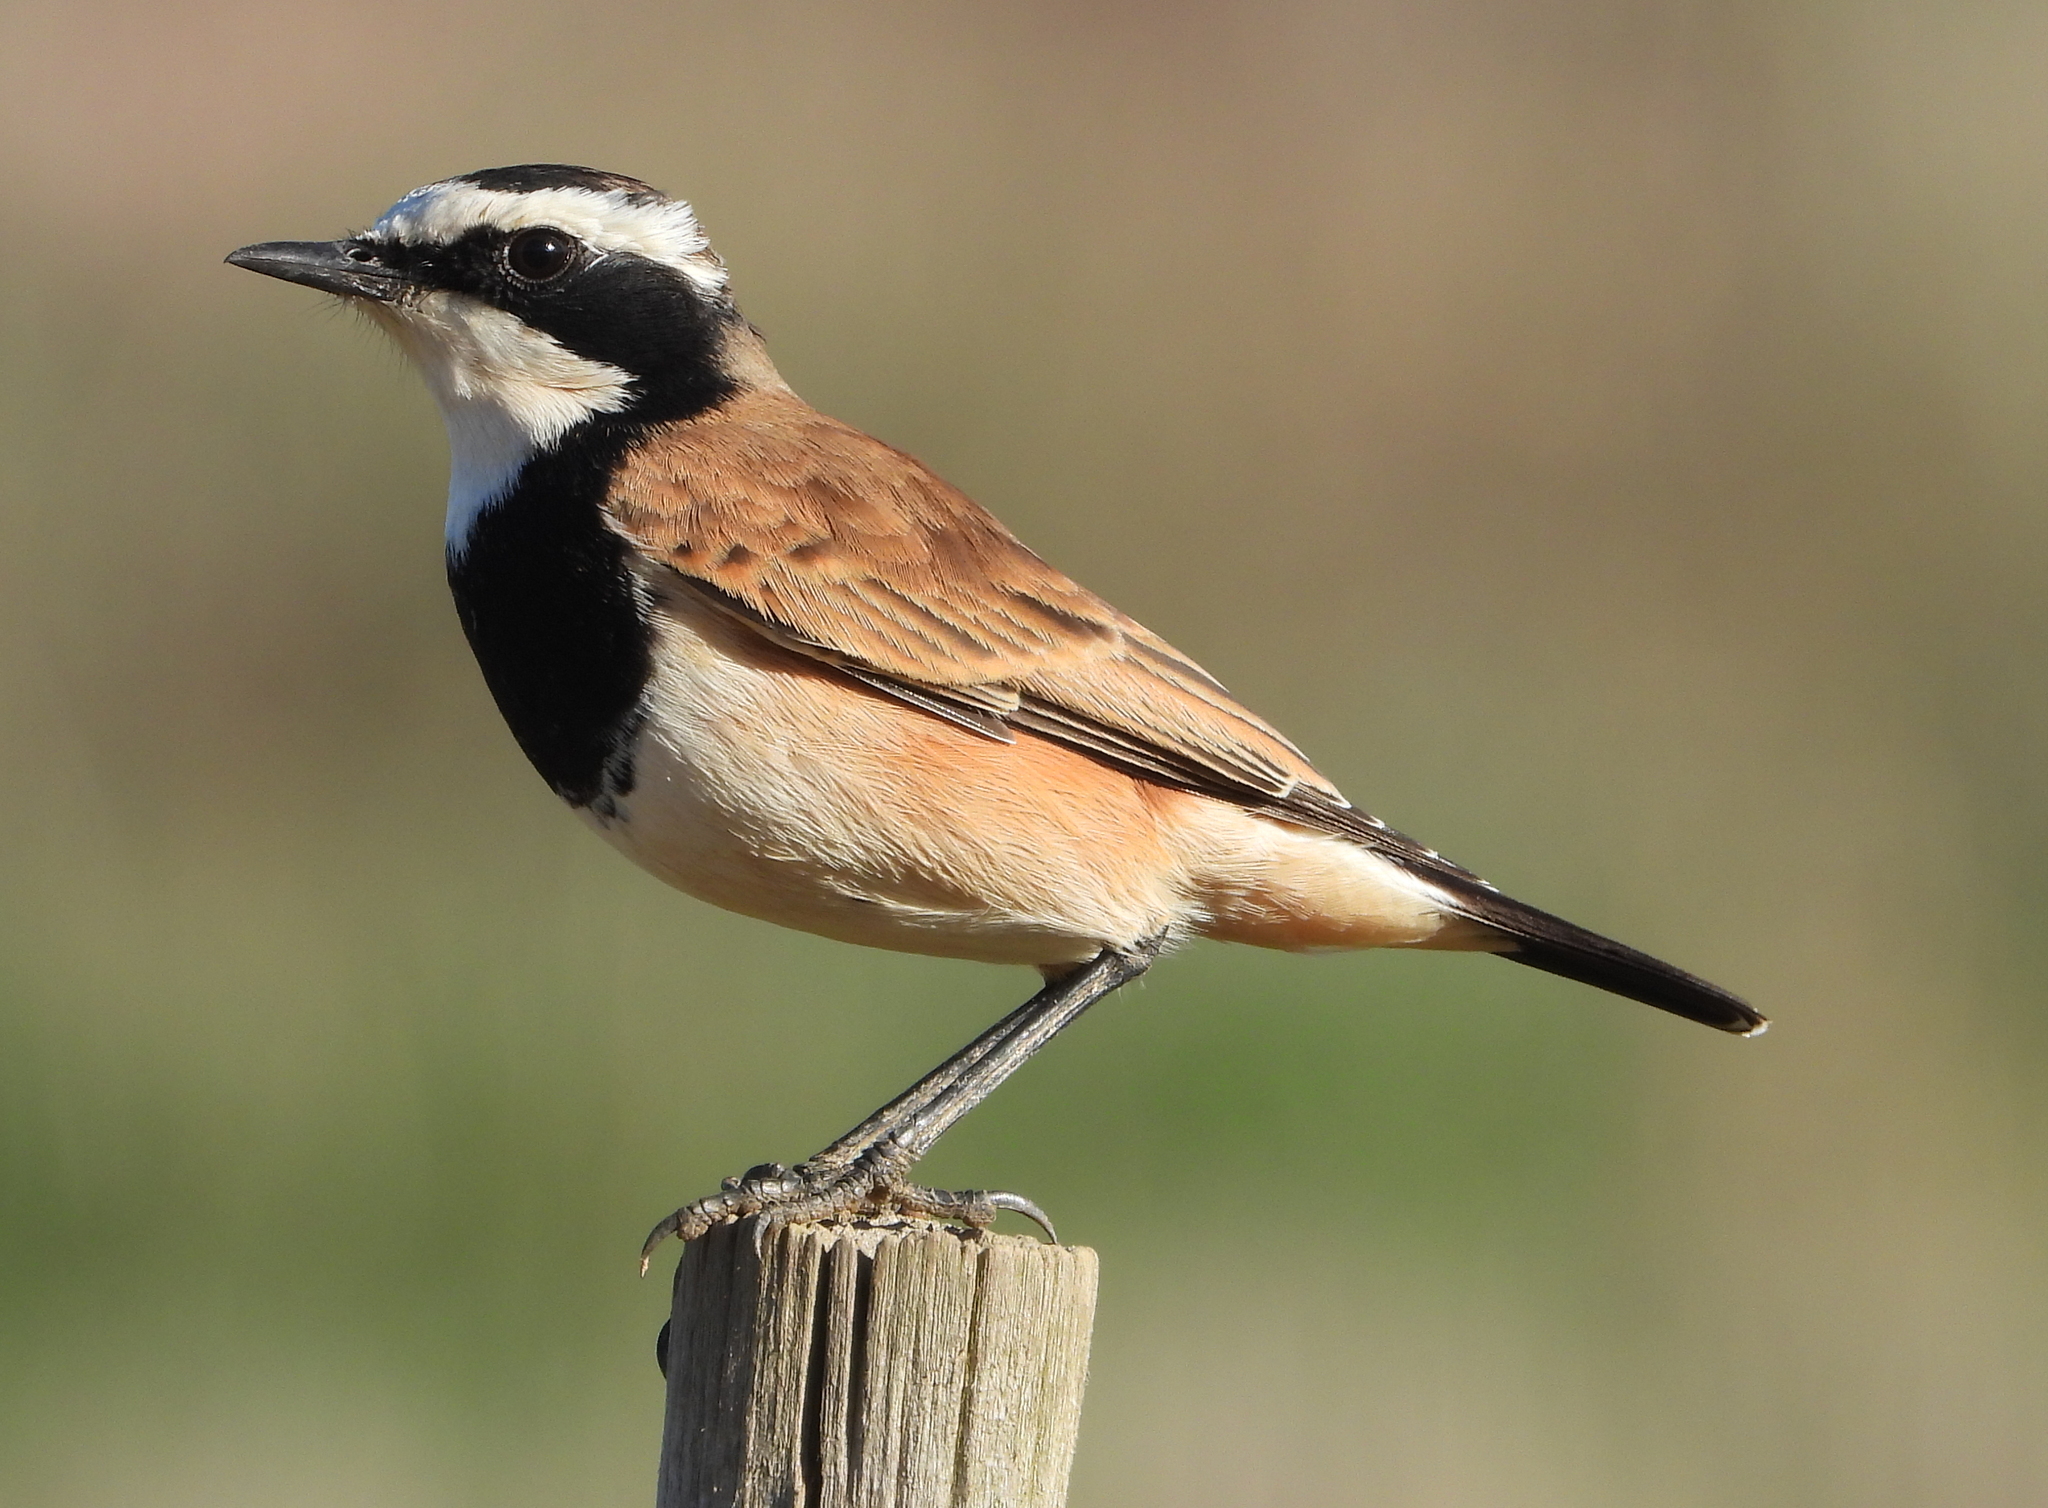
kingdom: Animalia
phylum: Chordata
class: Aves
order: Passeriformes
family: Muscicapidae
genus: Oenanthe
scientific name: Oenanthe pileata
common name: Capped wheatear
